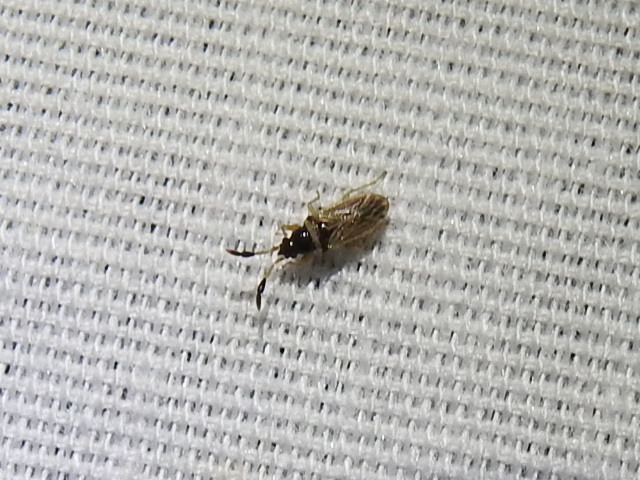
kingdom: Animalia
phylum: Arthropoda
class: Insecta
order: Hemiptera
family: Rhyparochromidae
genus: Ptochiomera
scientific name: Ptochiomera nodosa
